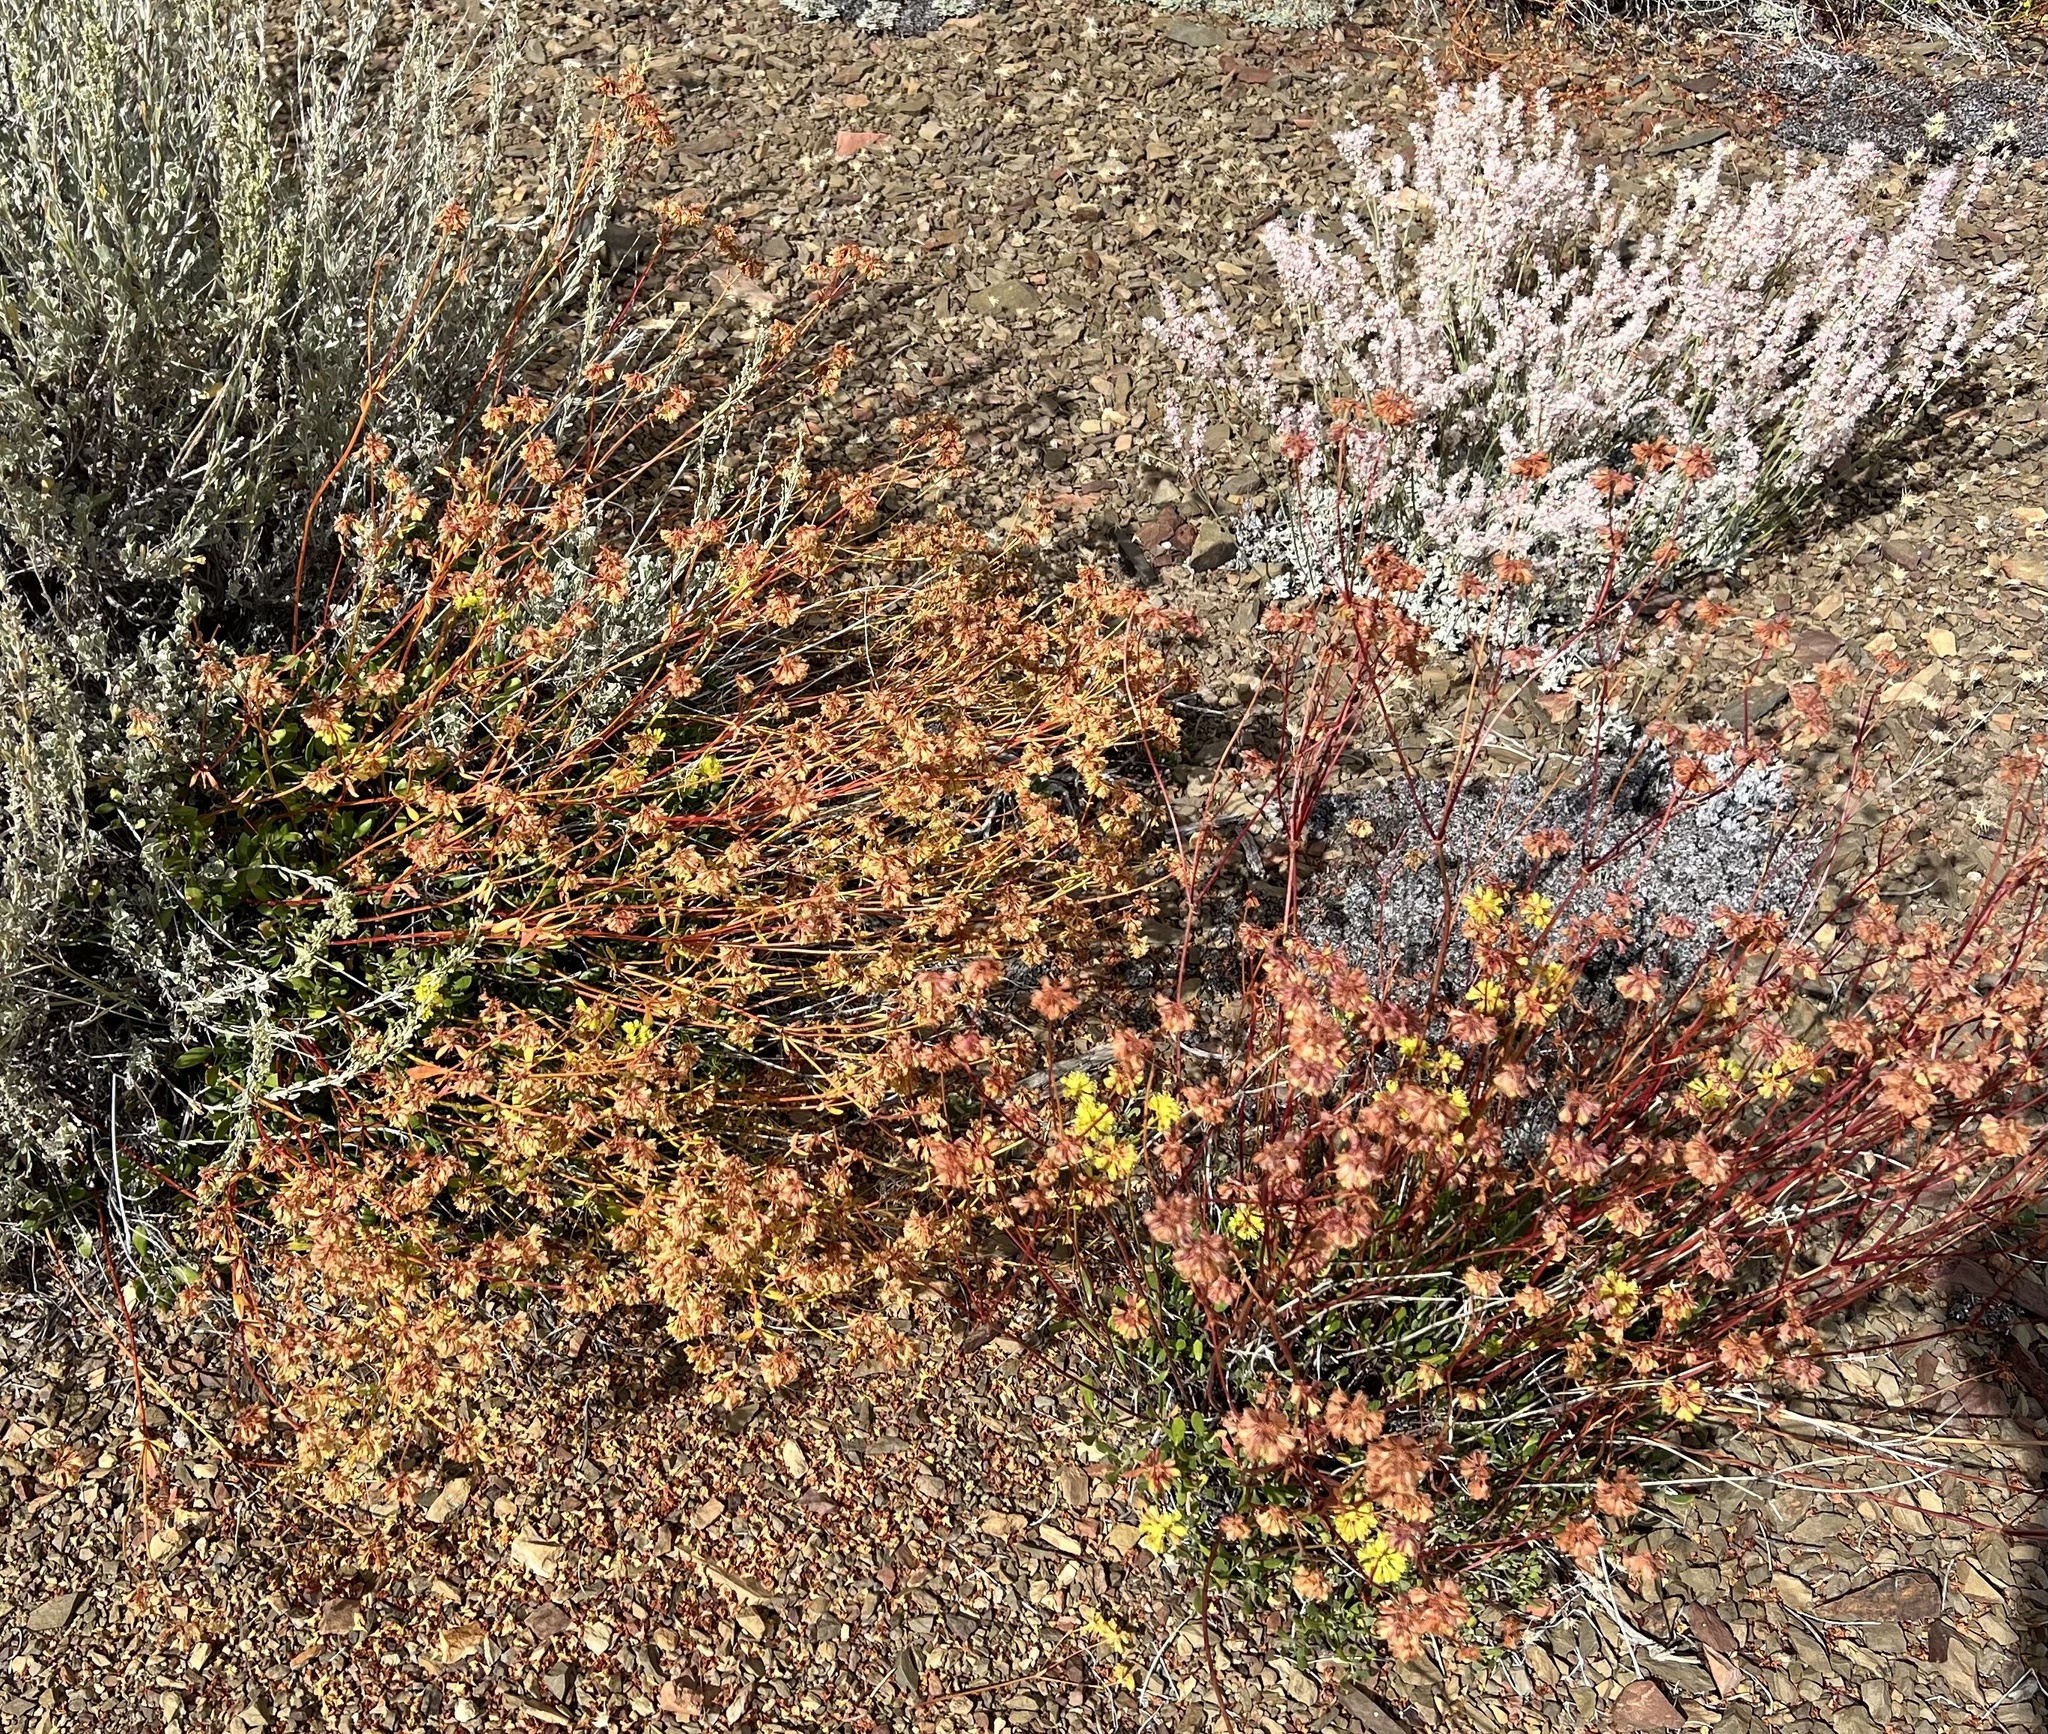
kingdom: Plantae
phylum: Tracheophyta
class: Magnoliopsida
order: Caryophyllales
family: Polygonaceae
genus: Eriogonum
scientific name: Eriogonum umbellatum
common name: Sulfur-buckwheat
